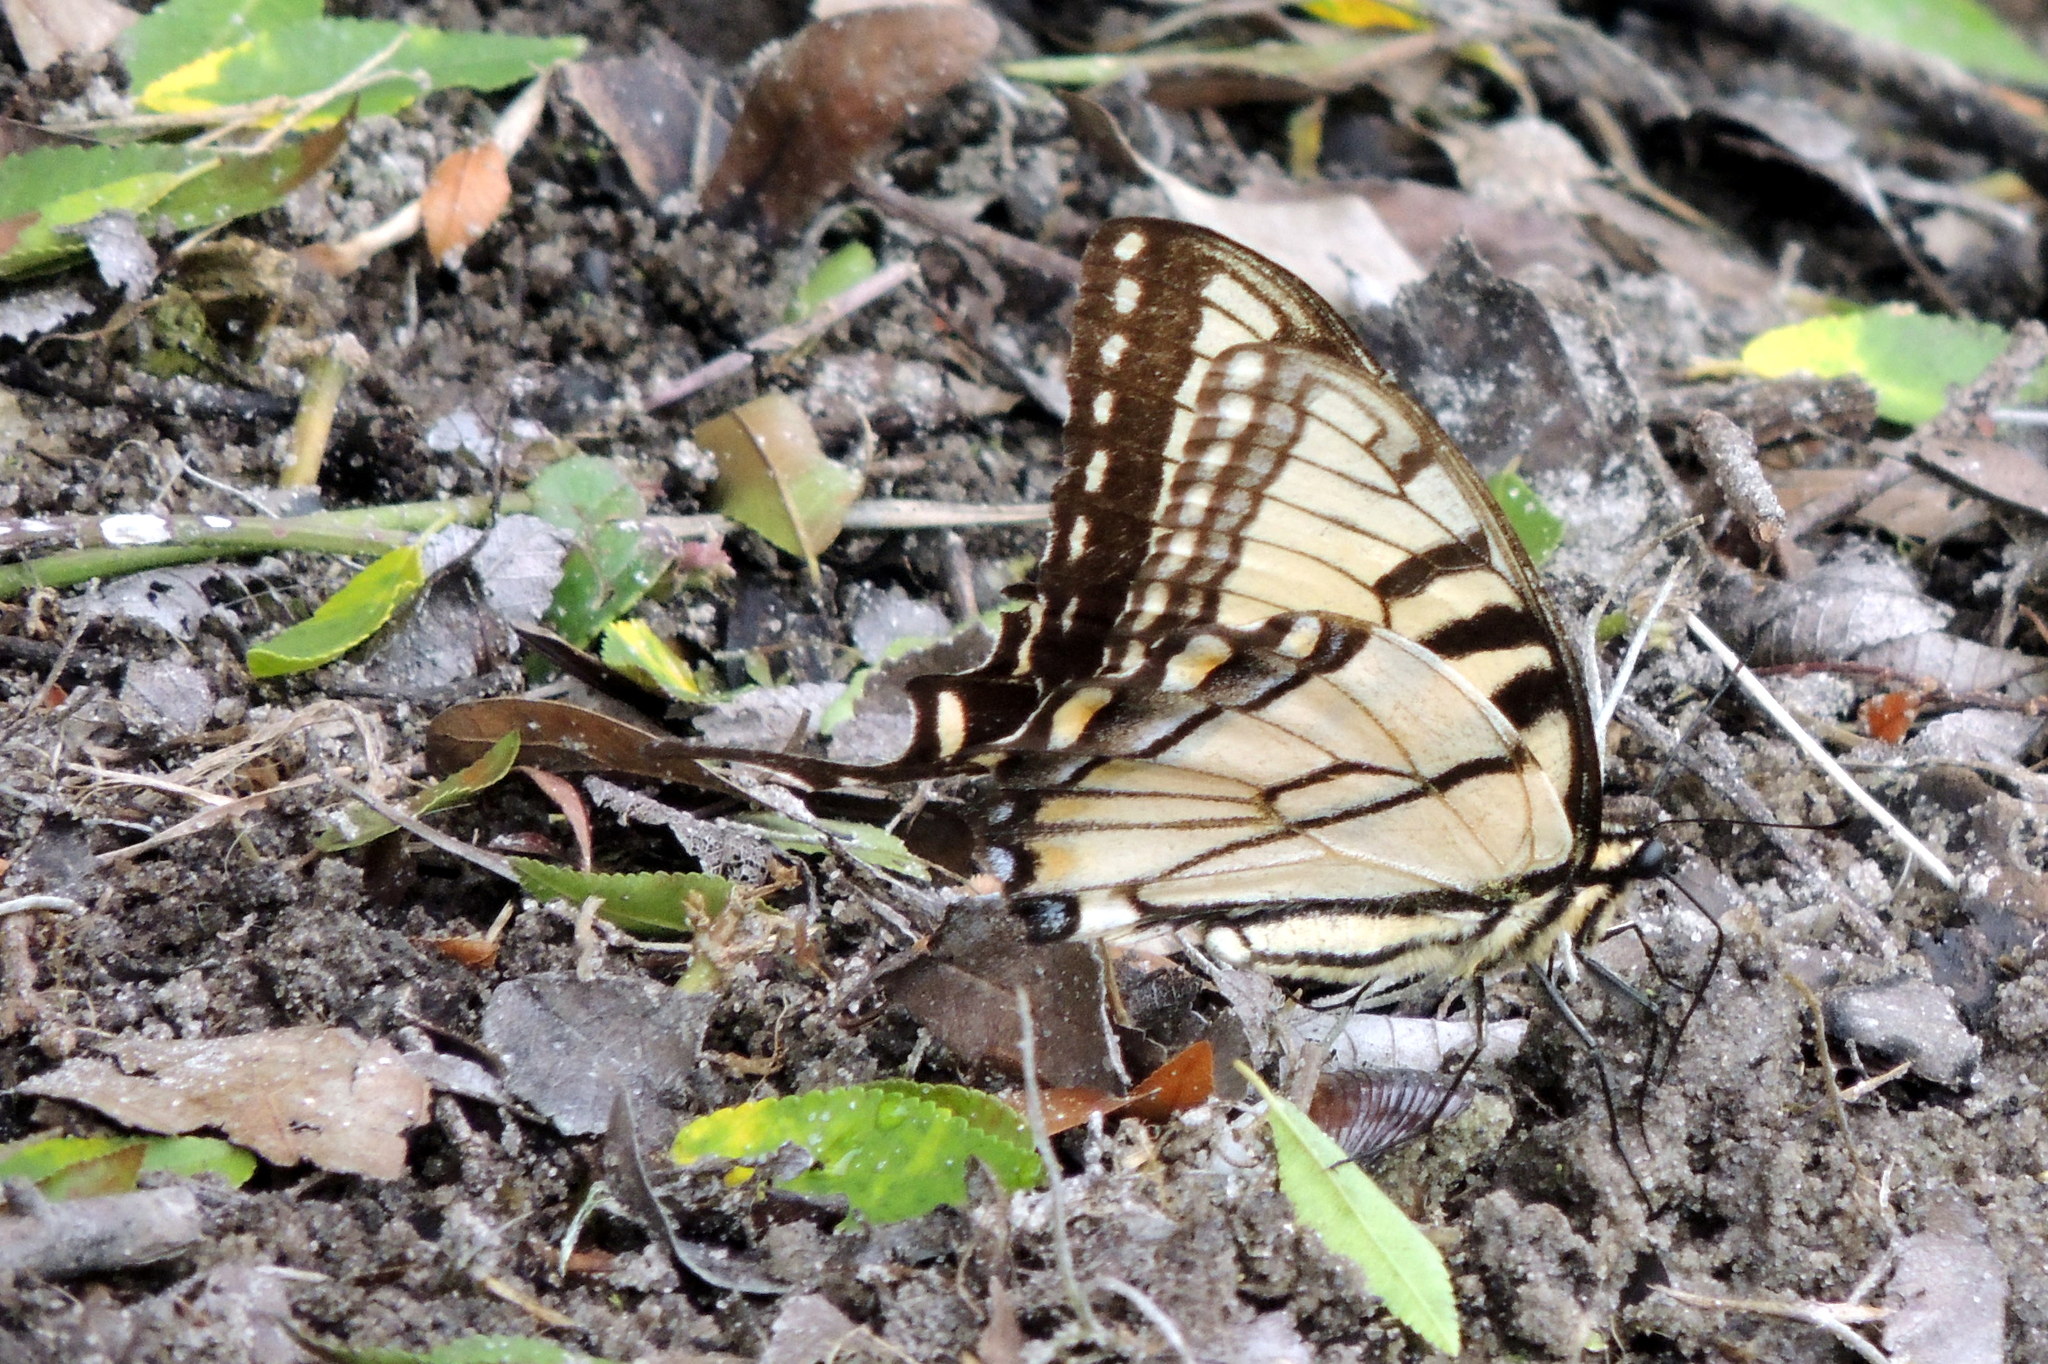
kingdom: Animalia
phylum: Arthropoda
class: Insecta
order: Lepidoptera
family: Papilionidae
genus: Papilio
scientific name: Papilio glaucus
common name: Tiger swallowtail
